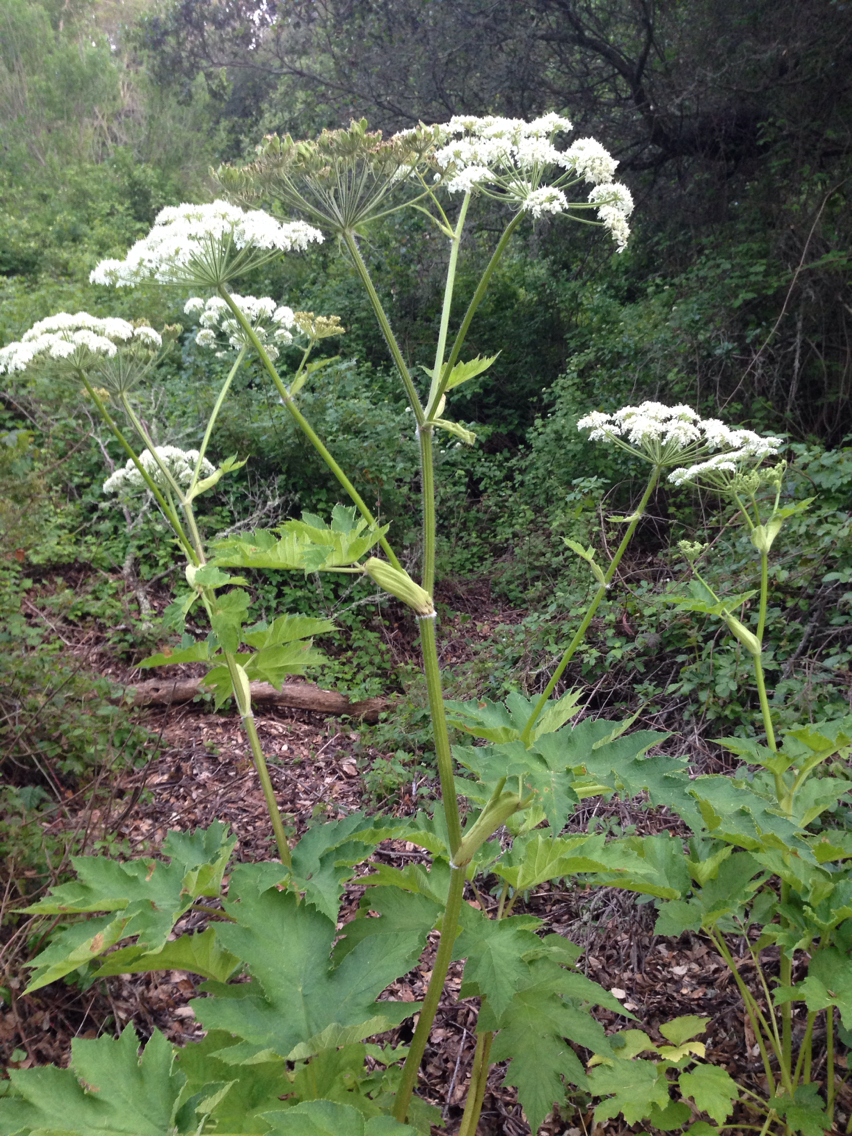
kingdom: Plantae
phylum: Tracheophyta
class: Magnoliopsida
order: Apiales
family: Apiaceae
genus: Heracleum
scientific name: Heracleum maximum
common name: American cow parsnip
